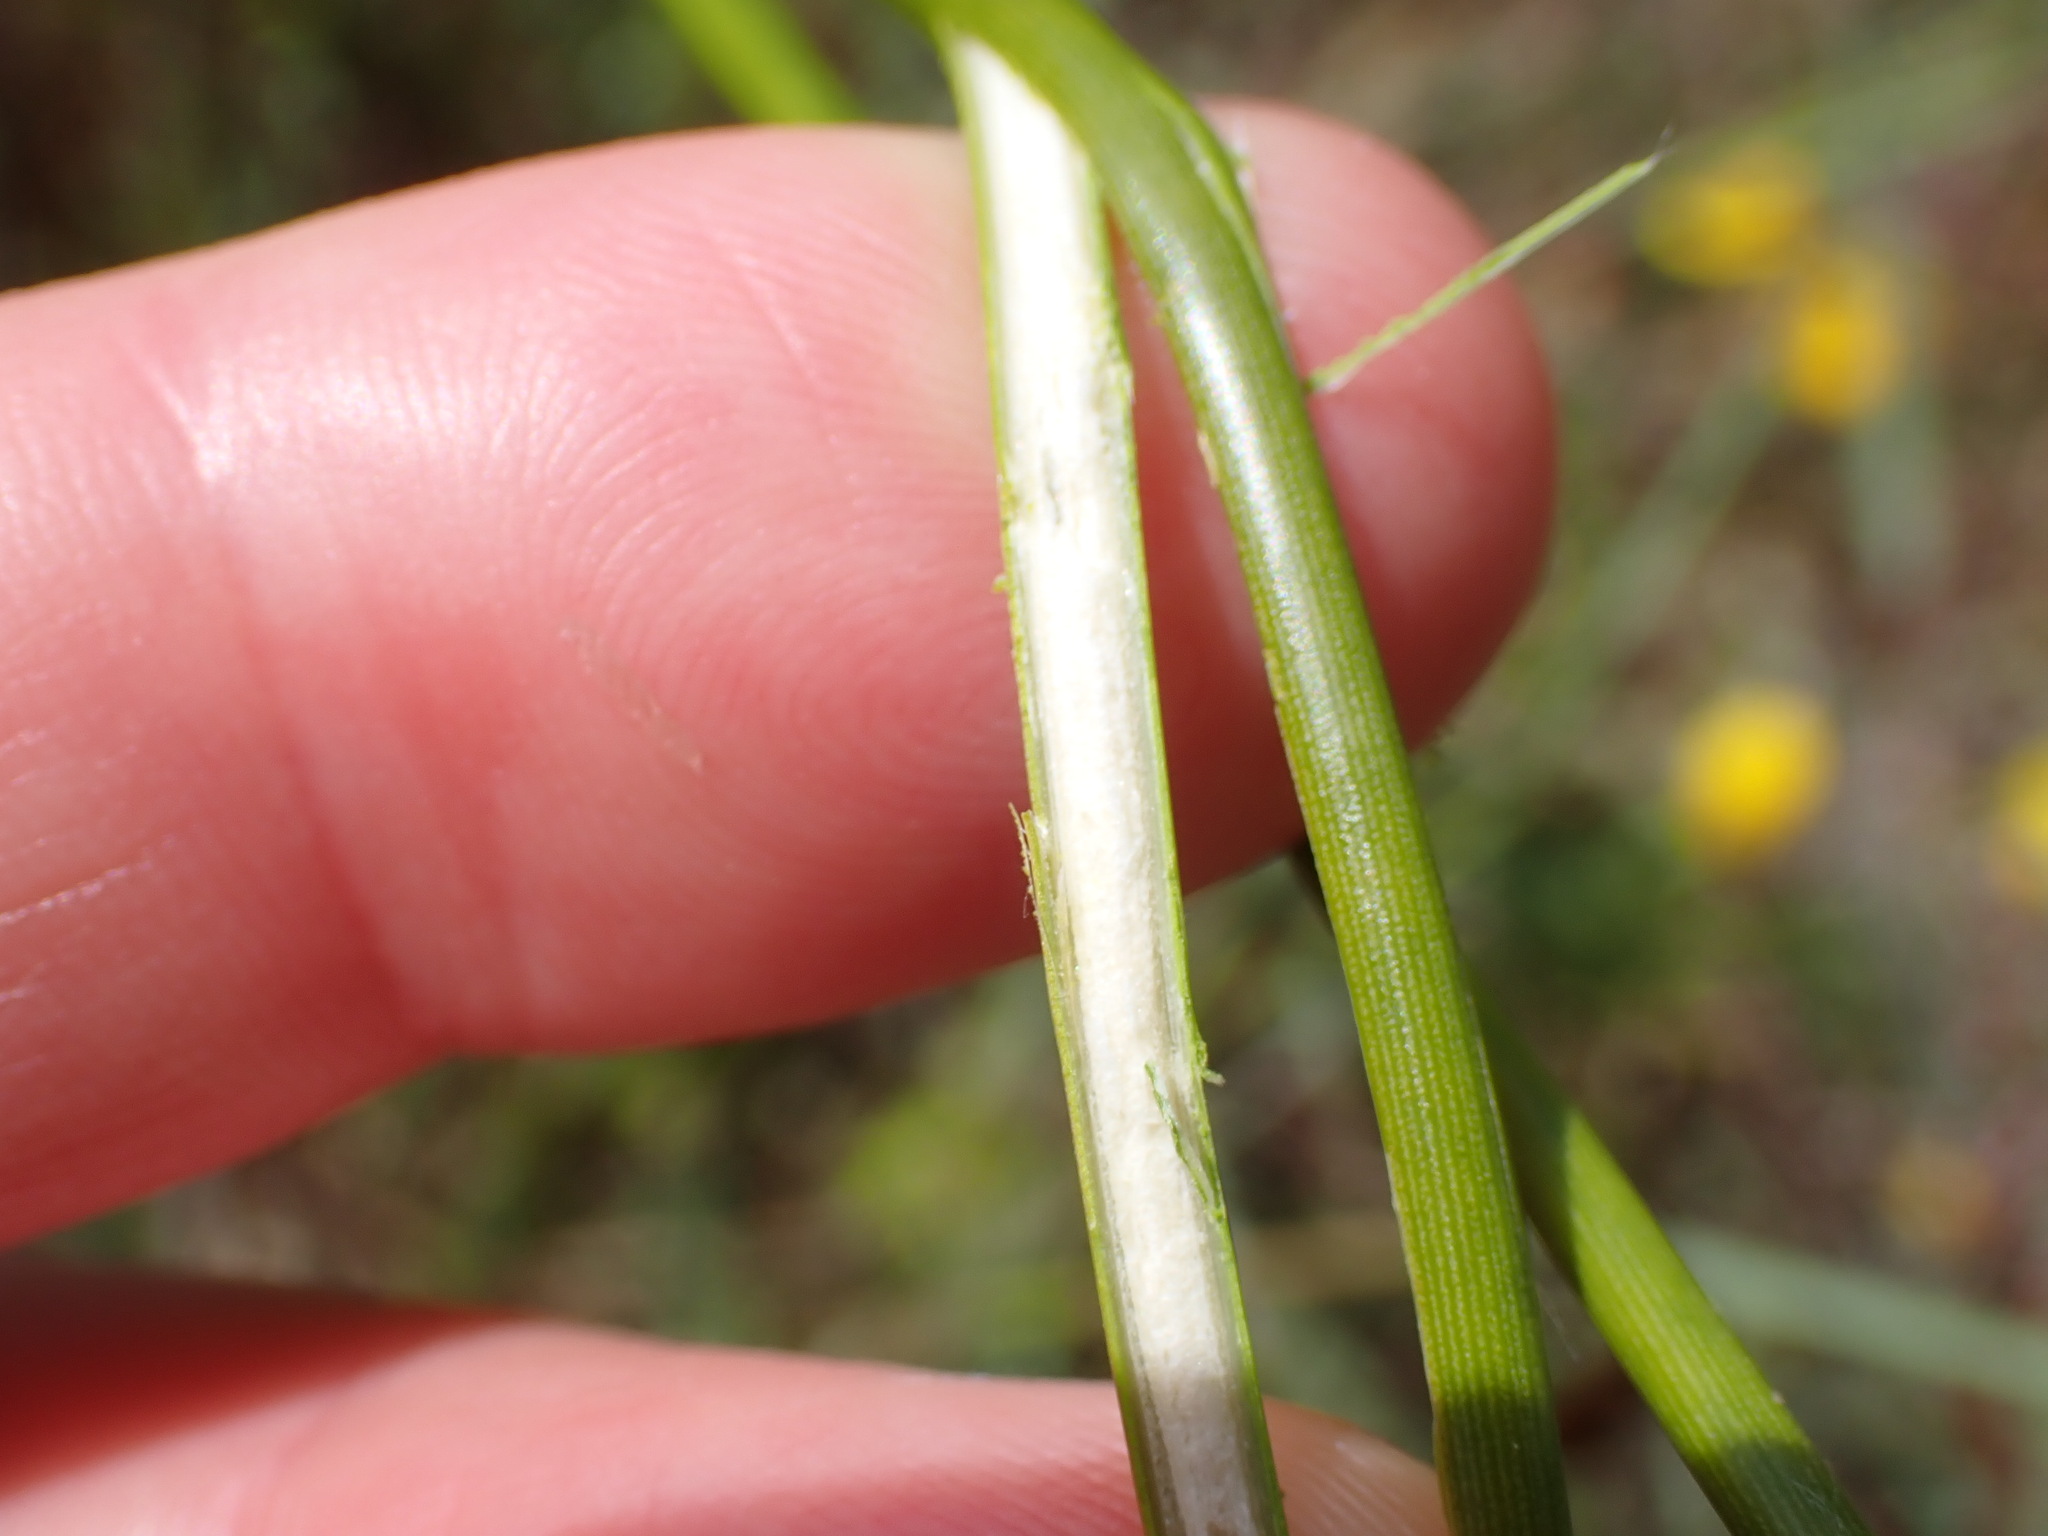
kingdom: Plantae
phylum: Tracheophyta
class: Liliopsida
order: Poales
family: Juncaceae
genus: Juncus
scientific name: Juncus kraussii
